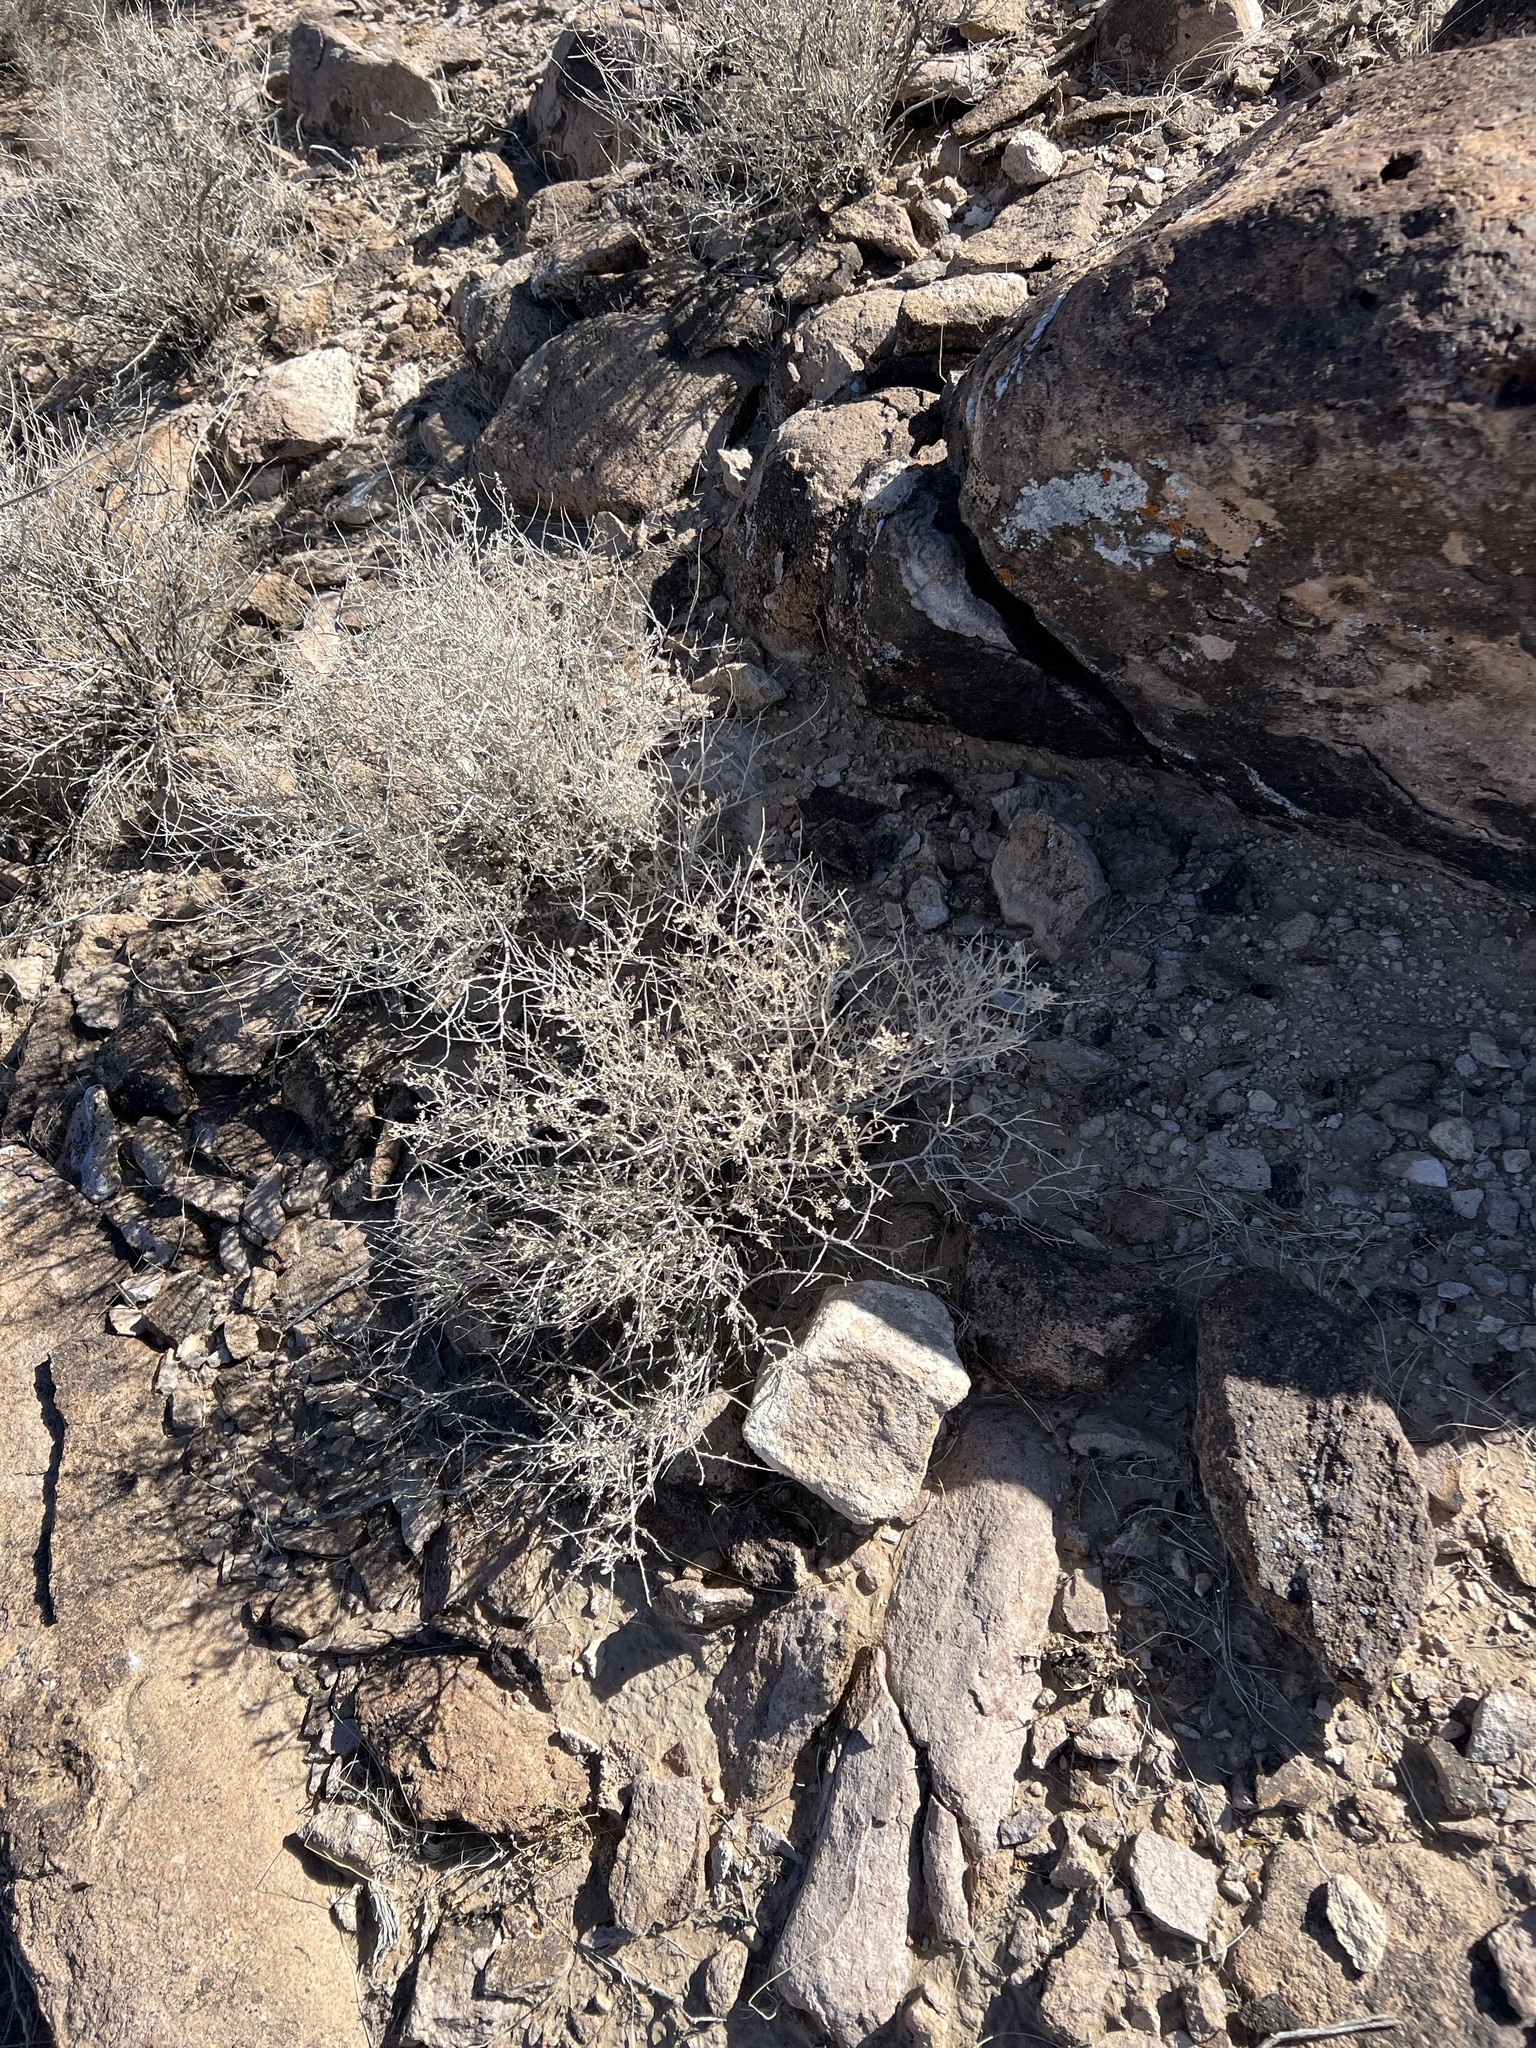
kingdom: Plantae
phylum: Tracheophyta
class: Magnoliopsida
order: Asterales
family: Asteraceae
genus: Ambrosia
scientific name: Ambrosia dumosa
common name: Bur-sage
